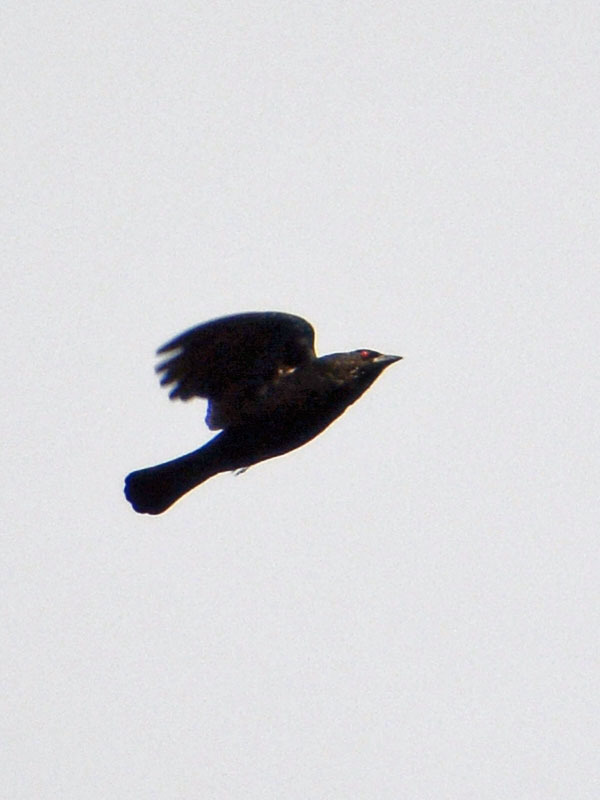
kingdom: Animalia
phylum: Chordata
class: Aves
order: Passeriformes
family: Icteridae
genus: Molothrus
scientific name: Molothrus aeneus
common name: Bronzed cowbird
